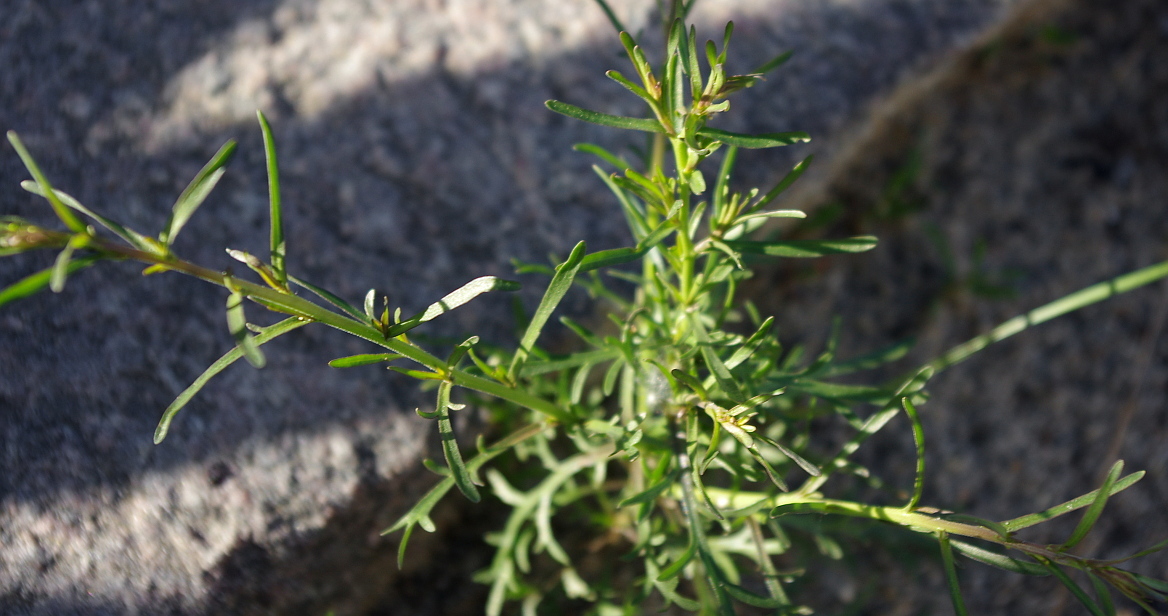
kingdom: Plantae
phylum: Tracheophyta
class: Magnoliopsida
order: Brassicales
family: Brassicaceae
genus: Lepidium
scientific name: Lepidium ruderale
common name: Narrow-leaved pepperwort
